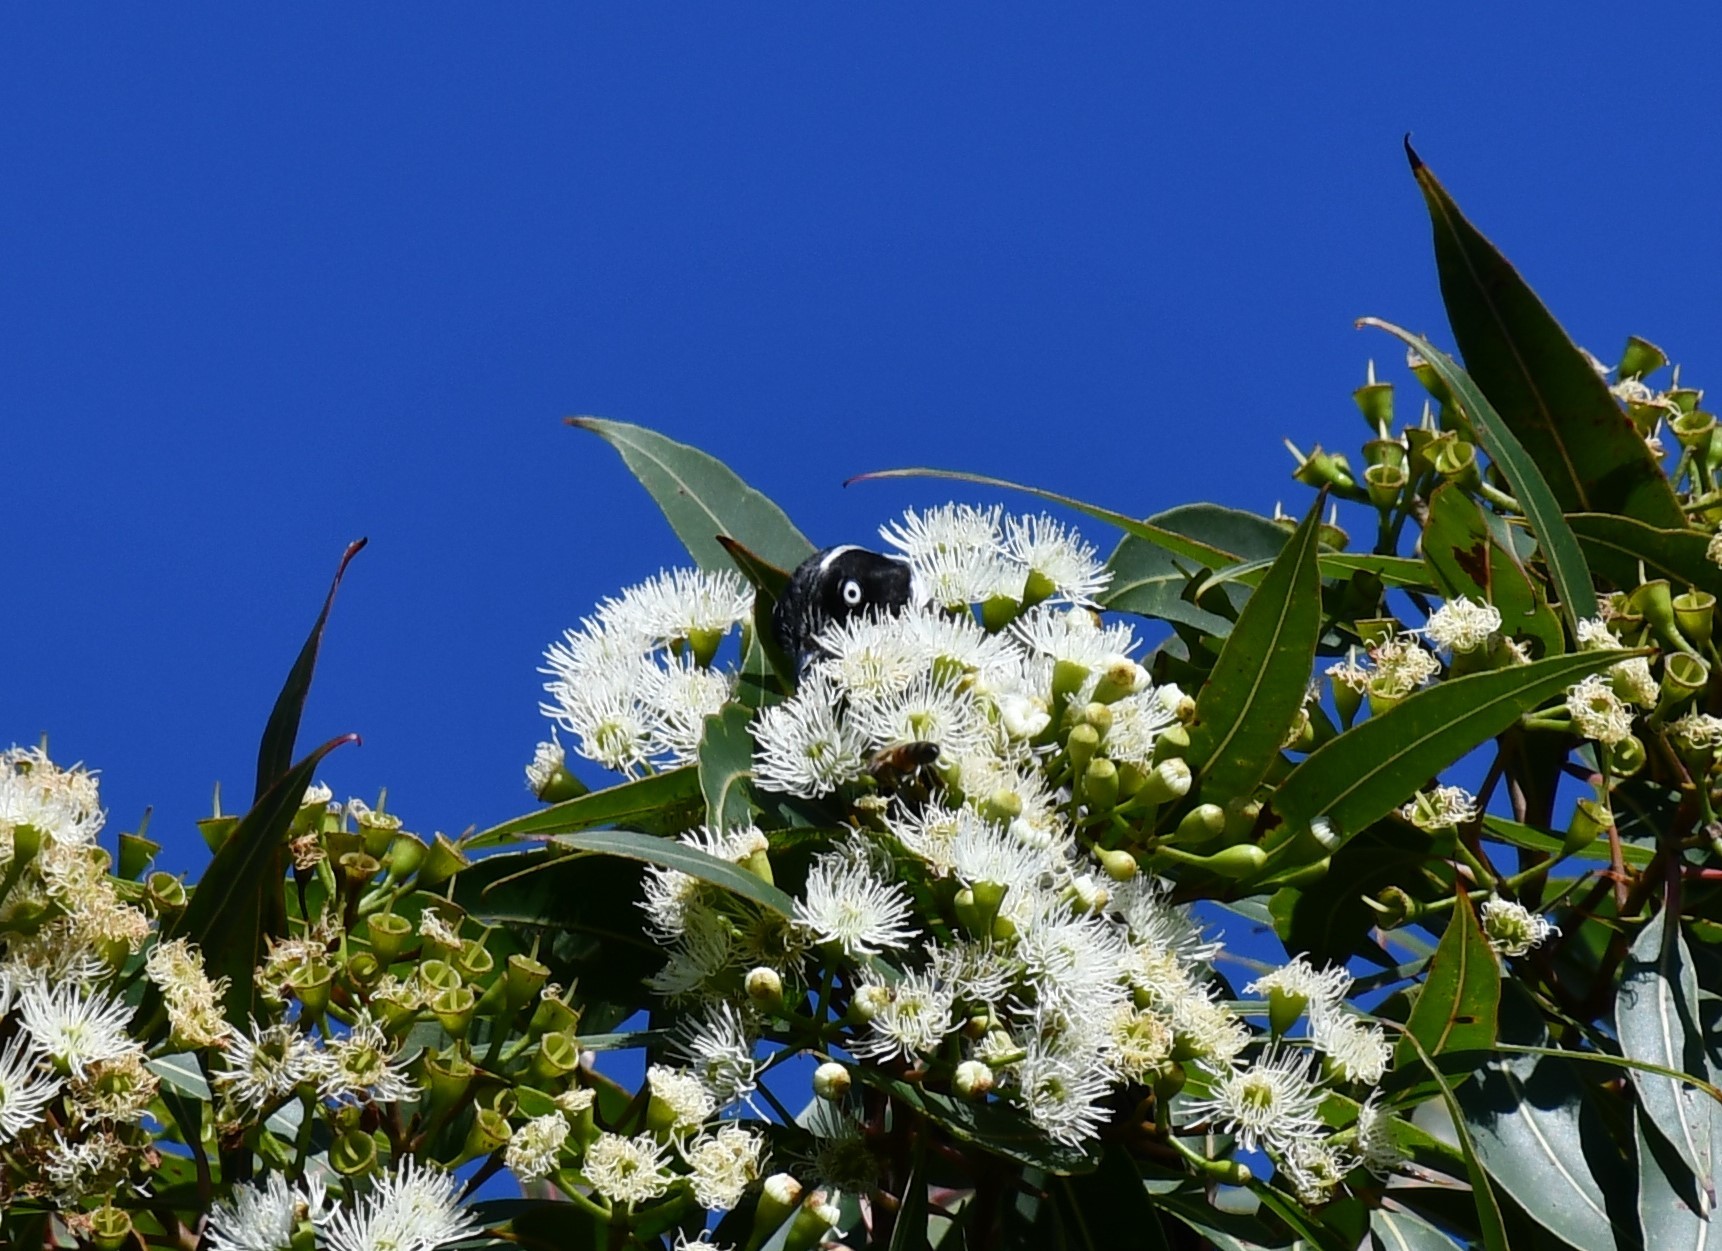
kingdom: Animalia
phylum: Chordata
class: Aves
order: Passeriformes
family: Meliphagidae
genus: Phylidonyris
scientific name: Phylidonyris novaehollandiae
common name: New holland honeyeater
